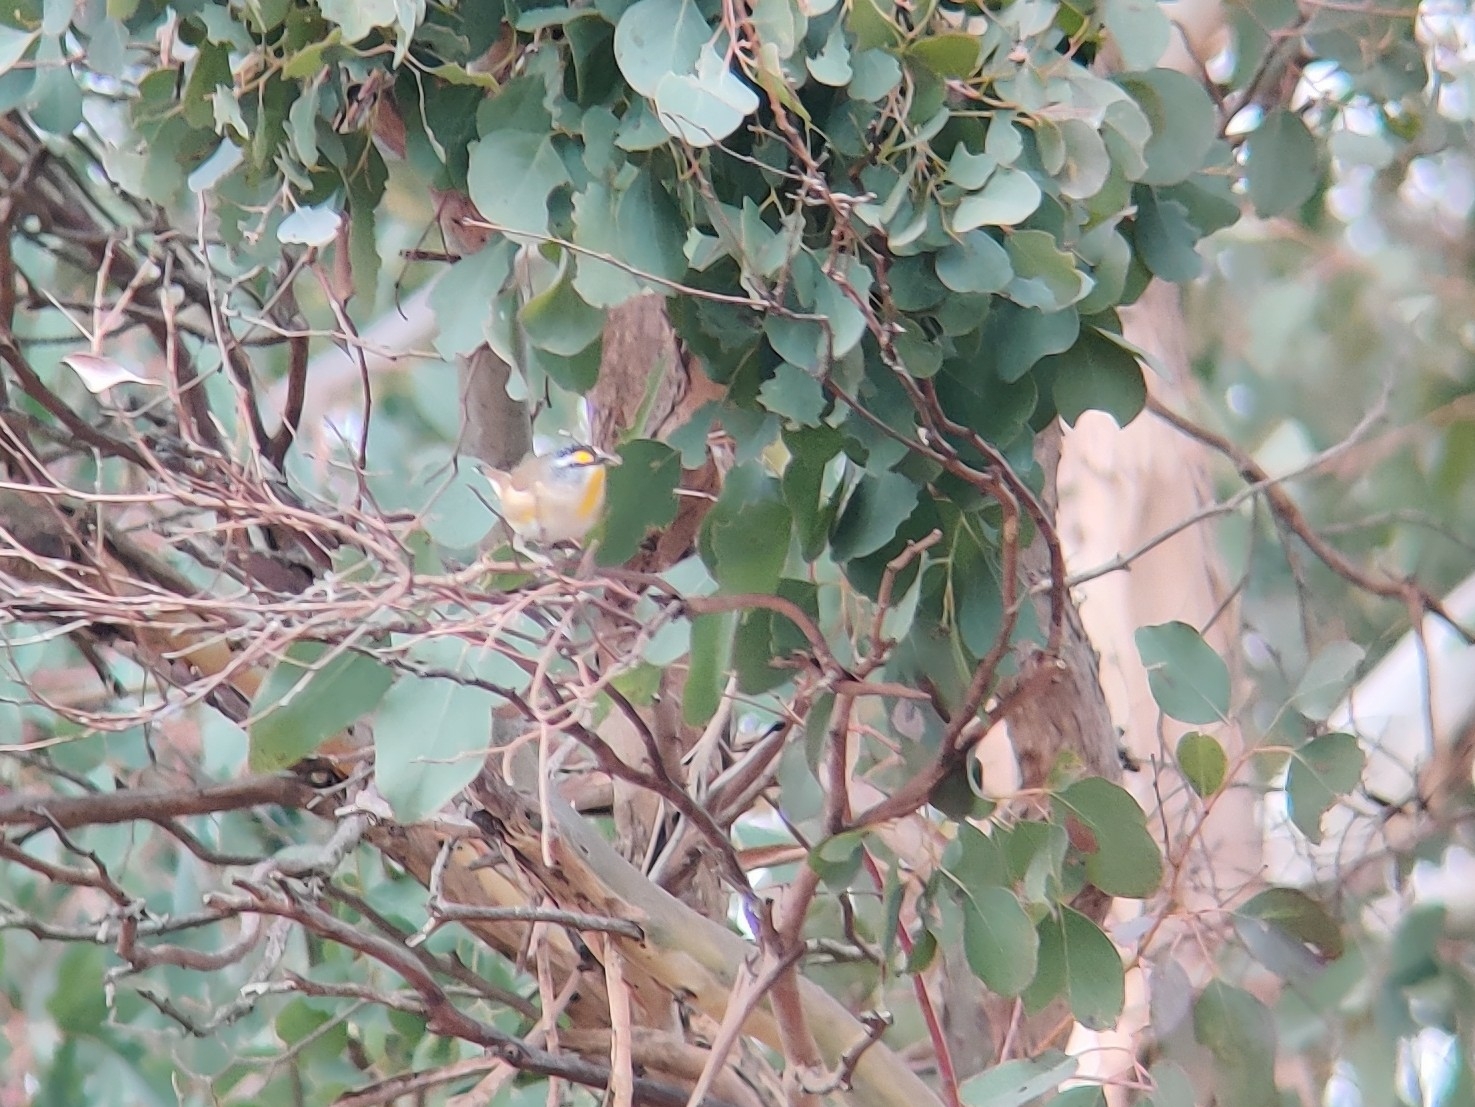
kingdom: Animalia
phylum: Chordata
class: Aves
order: Passeriformes
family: Pardalotidae
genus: Pardalotus
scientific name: Pardalotus striatus
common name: Striated pardalote
